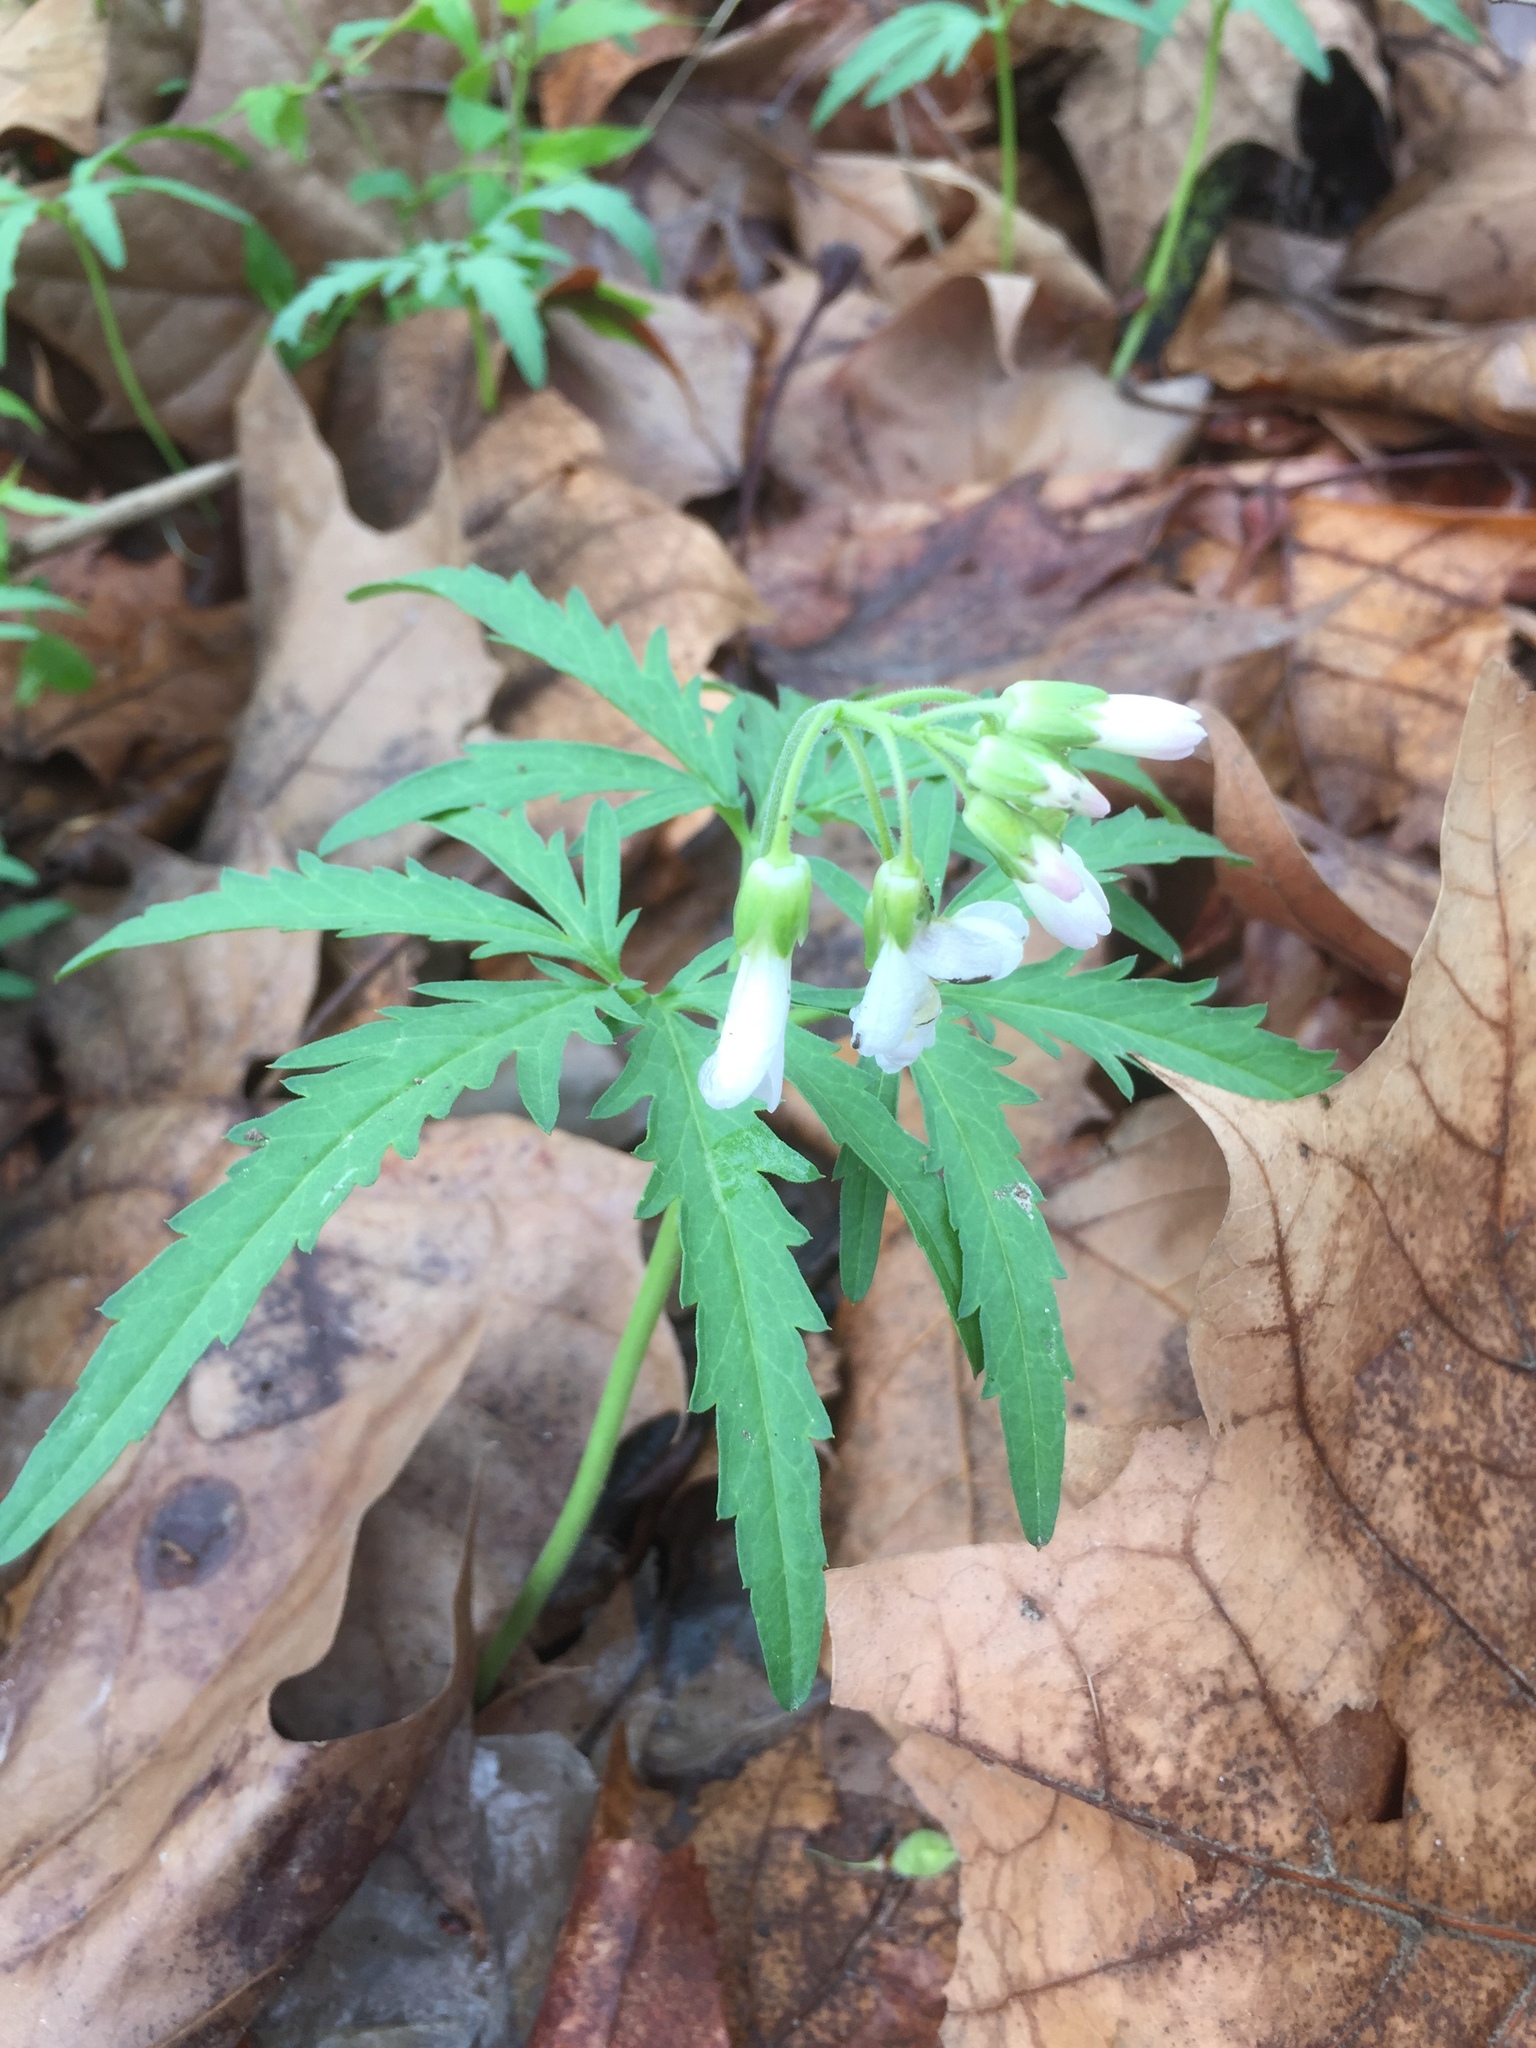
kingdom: Plantae
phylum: Tracheophyta
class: Magnoliopsida
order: Brassicales
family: Brassicaceae
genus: Cardamine
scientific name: Cardamine concatenata
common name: Cut-leaf toothcup
